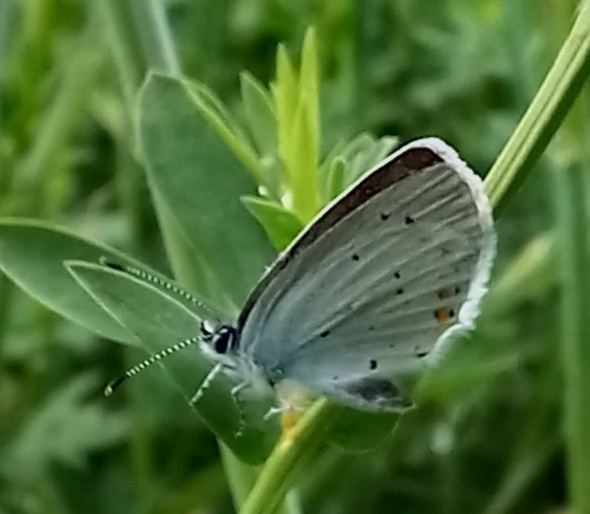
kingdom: Animalia
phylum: Arthropoda
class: Insecta
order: Lepidoptera
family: Lycaenidae
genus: Elkalyce
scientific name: Elkalyce argiades
